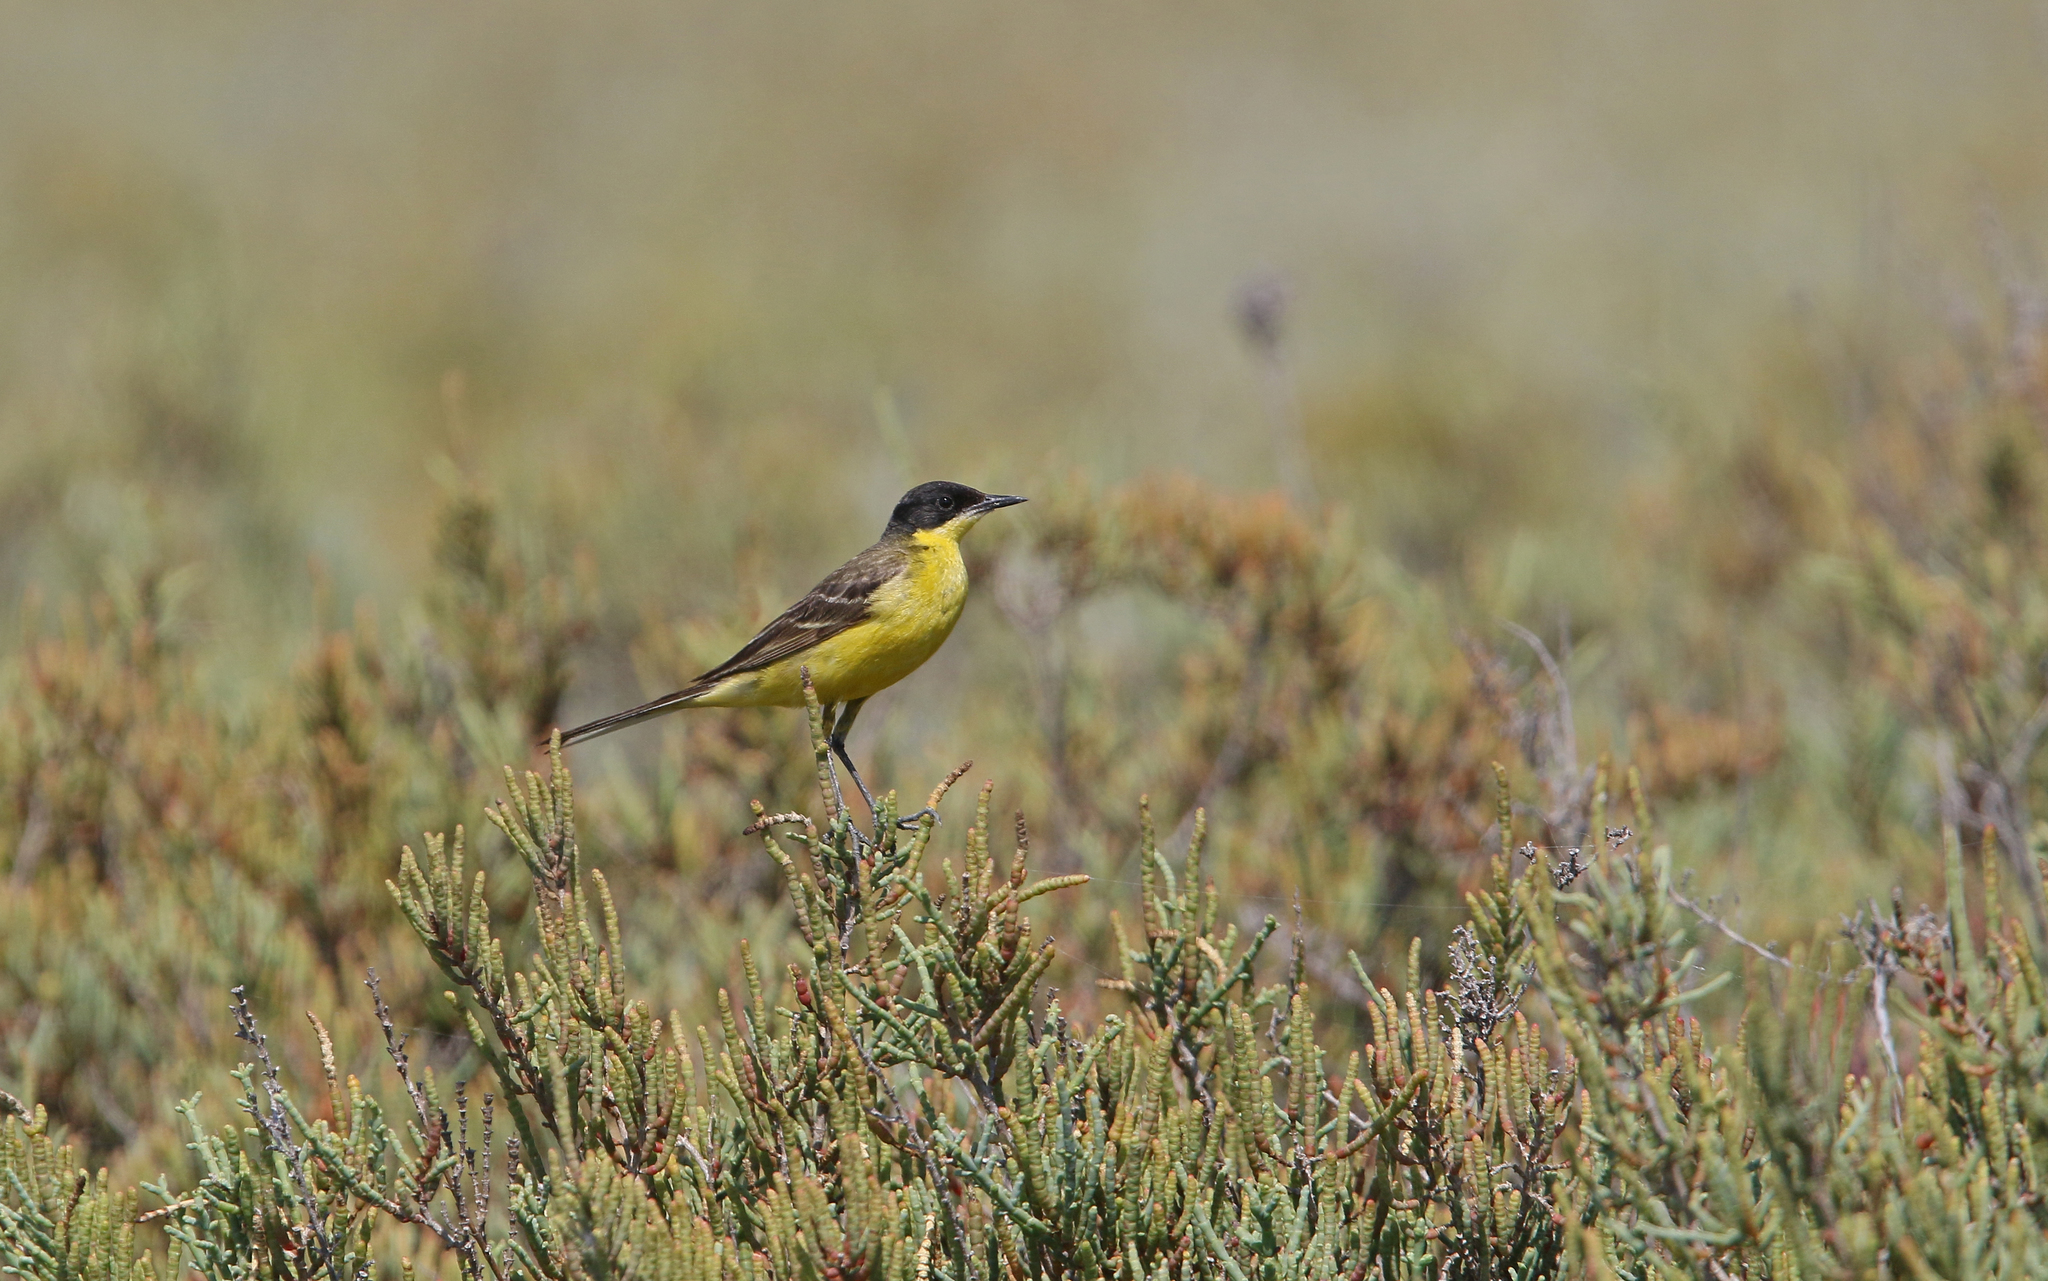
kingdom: Animalia
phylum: Chordata
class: Aves
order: Passeriformes
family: Motacillidae
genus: Motacilla
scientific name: Motacilla flava
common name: Western yellow wagtail
